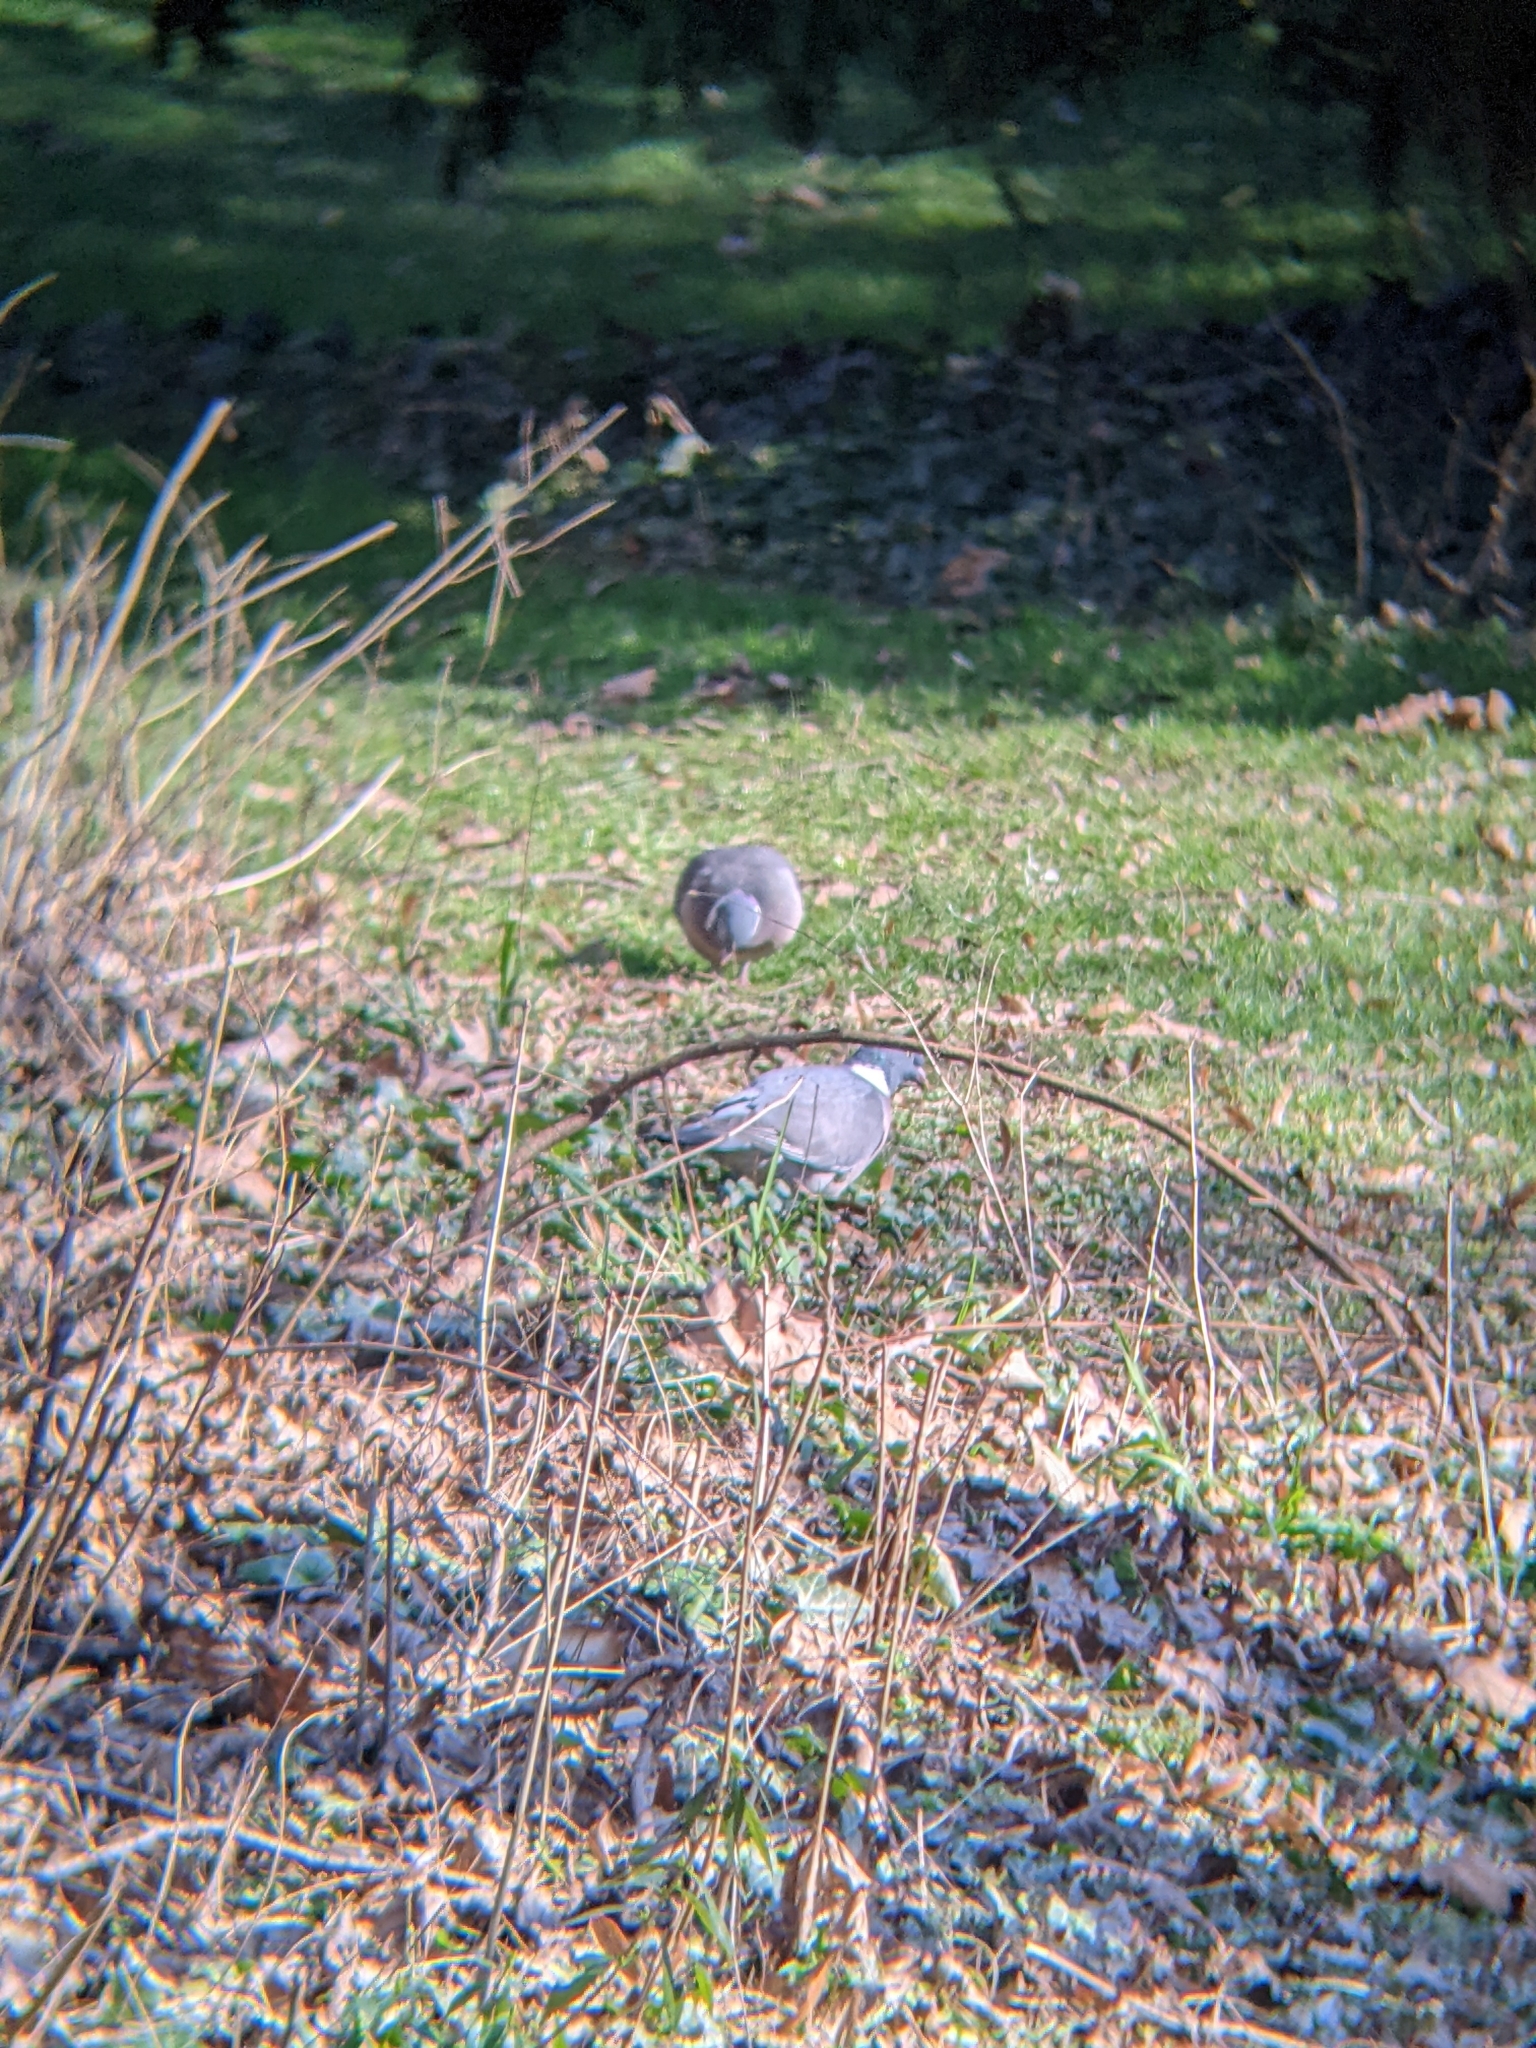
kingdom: Animalia
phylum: Chordata
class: Aves
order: Columbiformes
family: Columbidae
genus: Columba
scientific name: Columba palumbus
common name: Common wood pigeon
